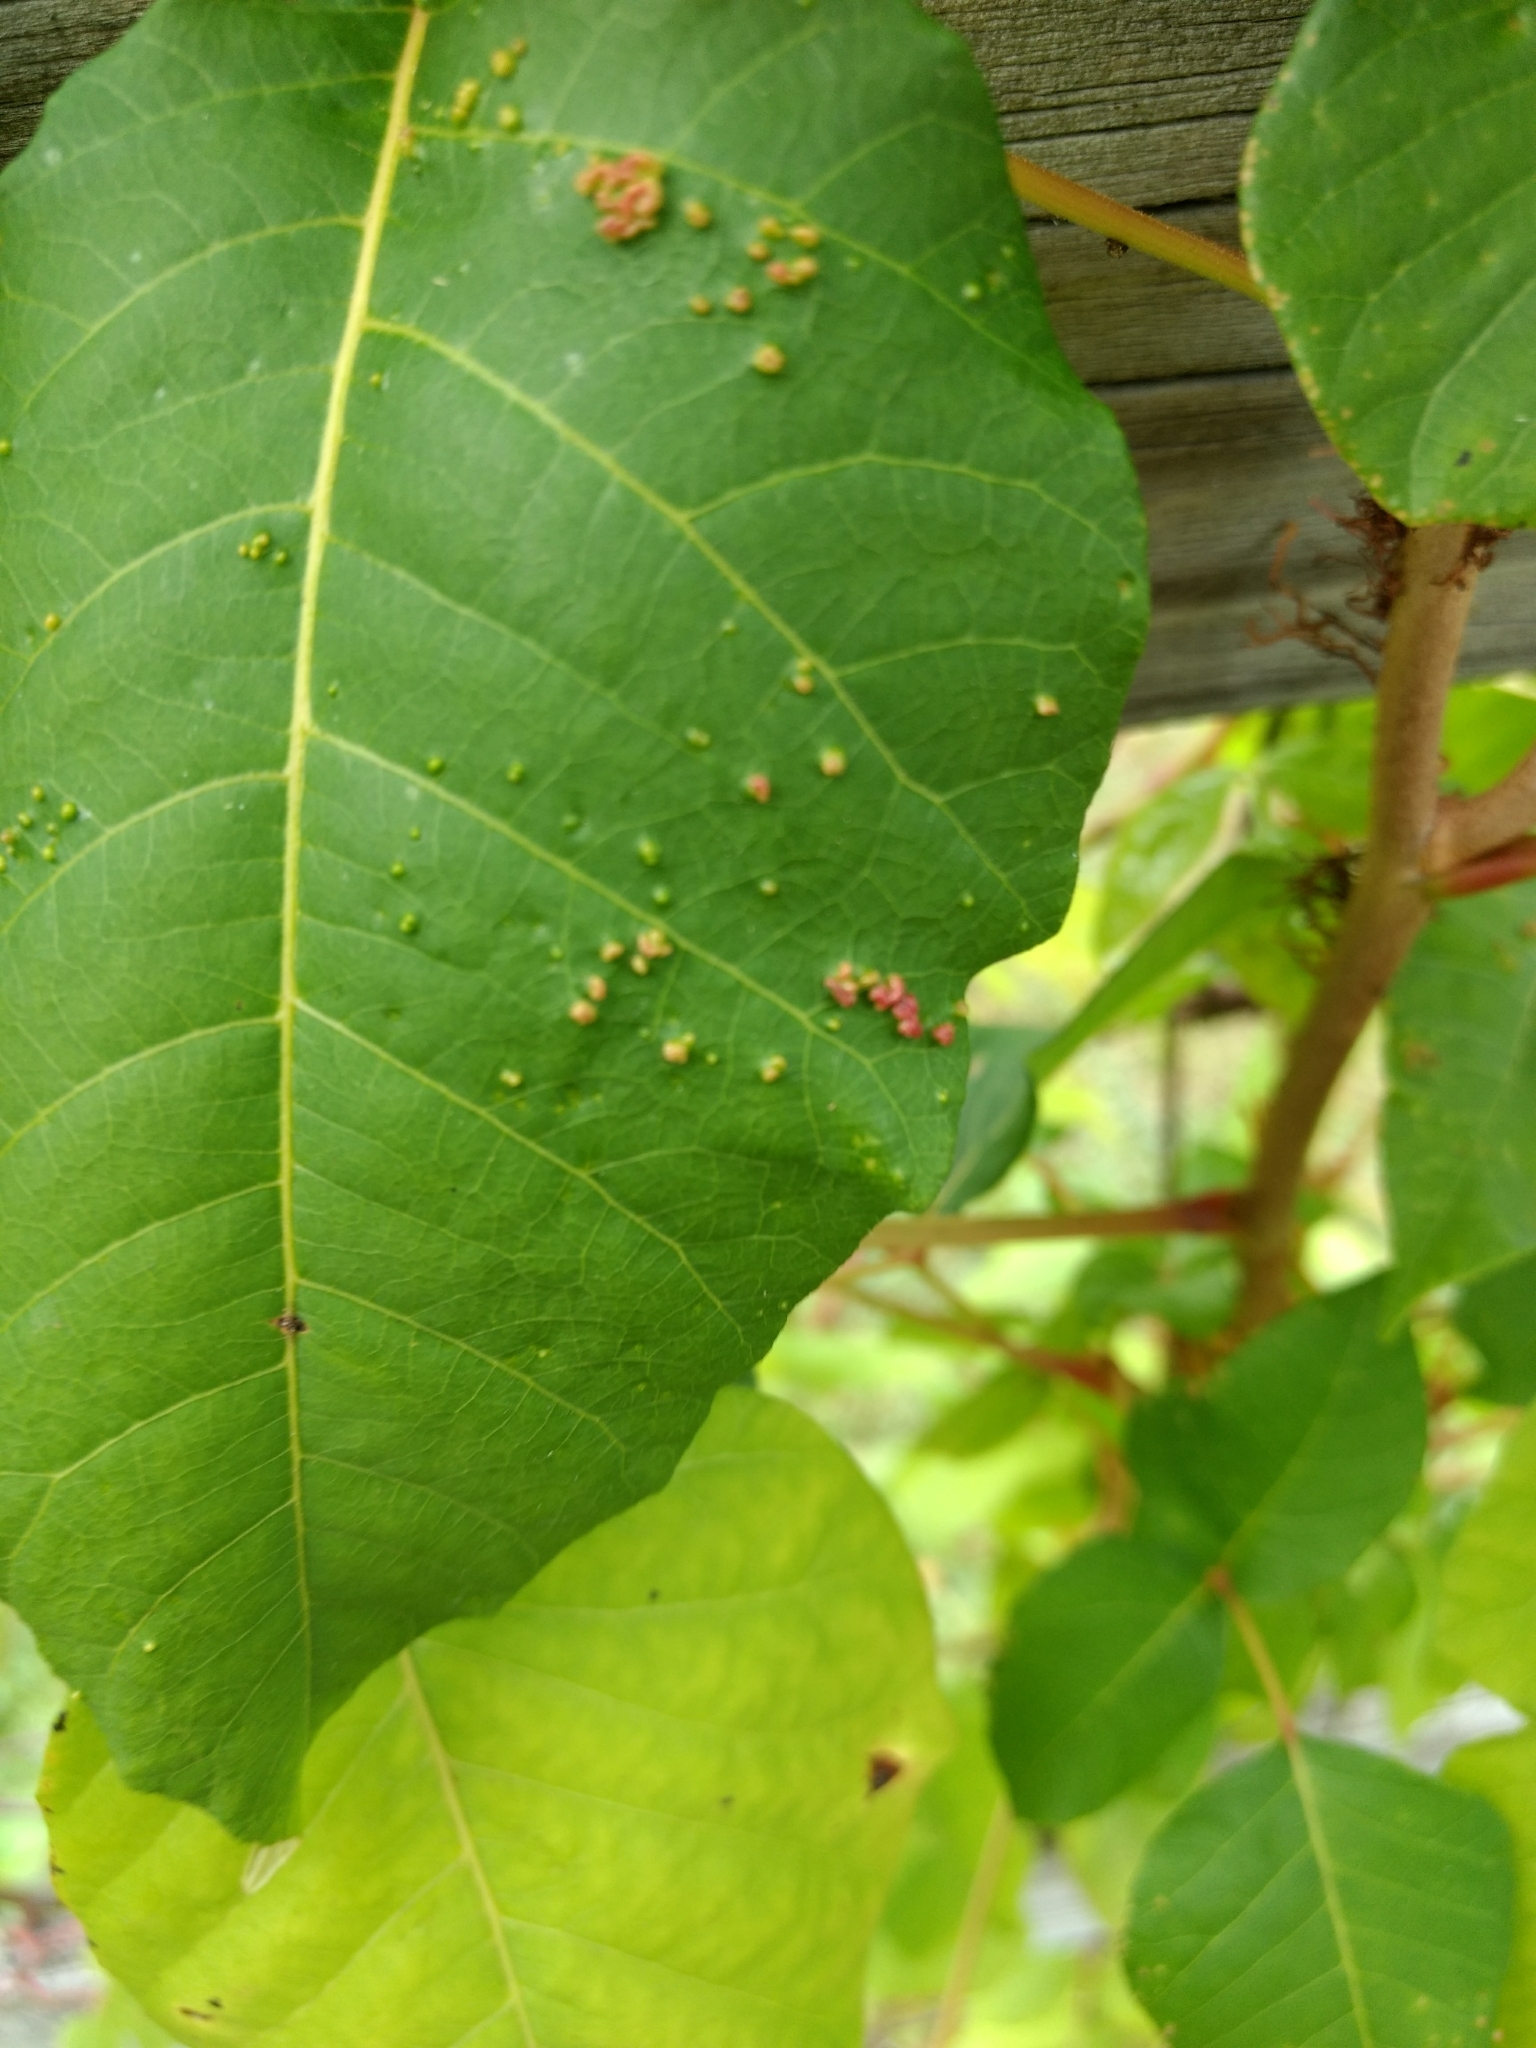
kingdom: Animalia
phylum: Arthropoda
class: Arachnida
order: Trombidiformes
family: Eriophyidae
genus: Aculops
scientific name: Aculops
